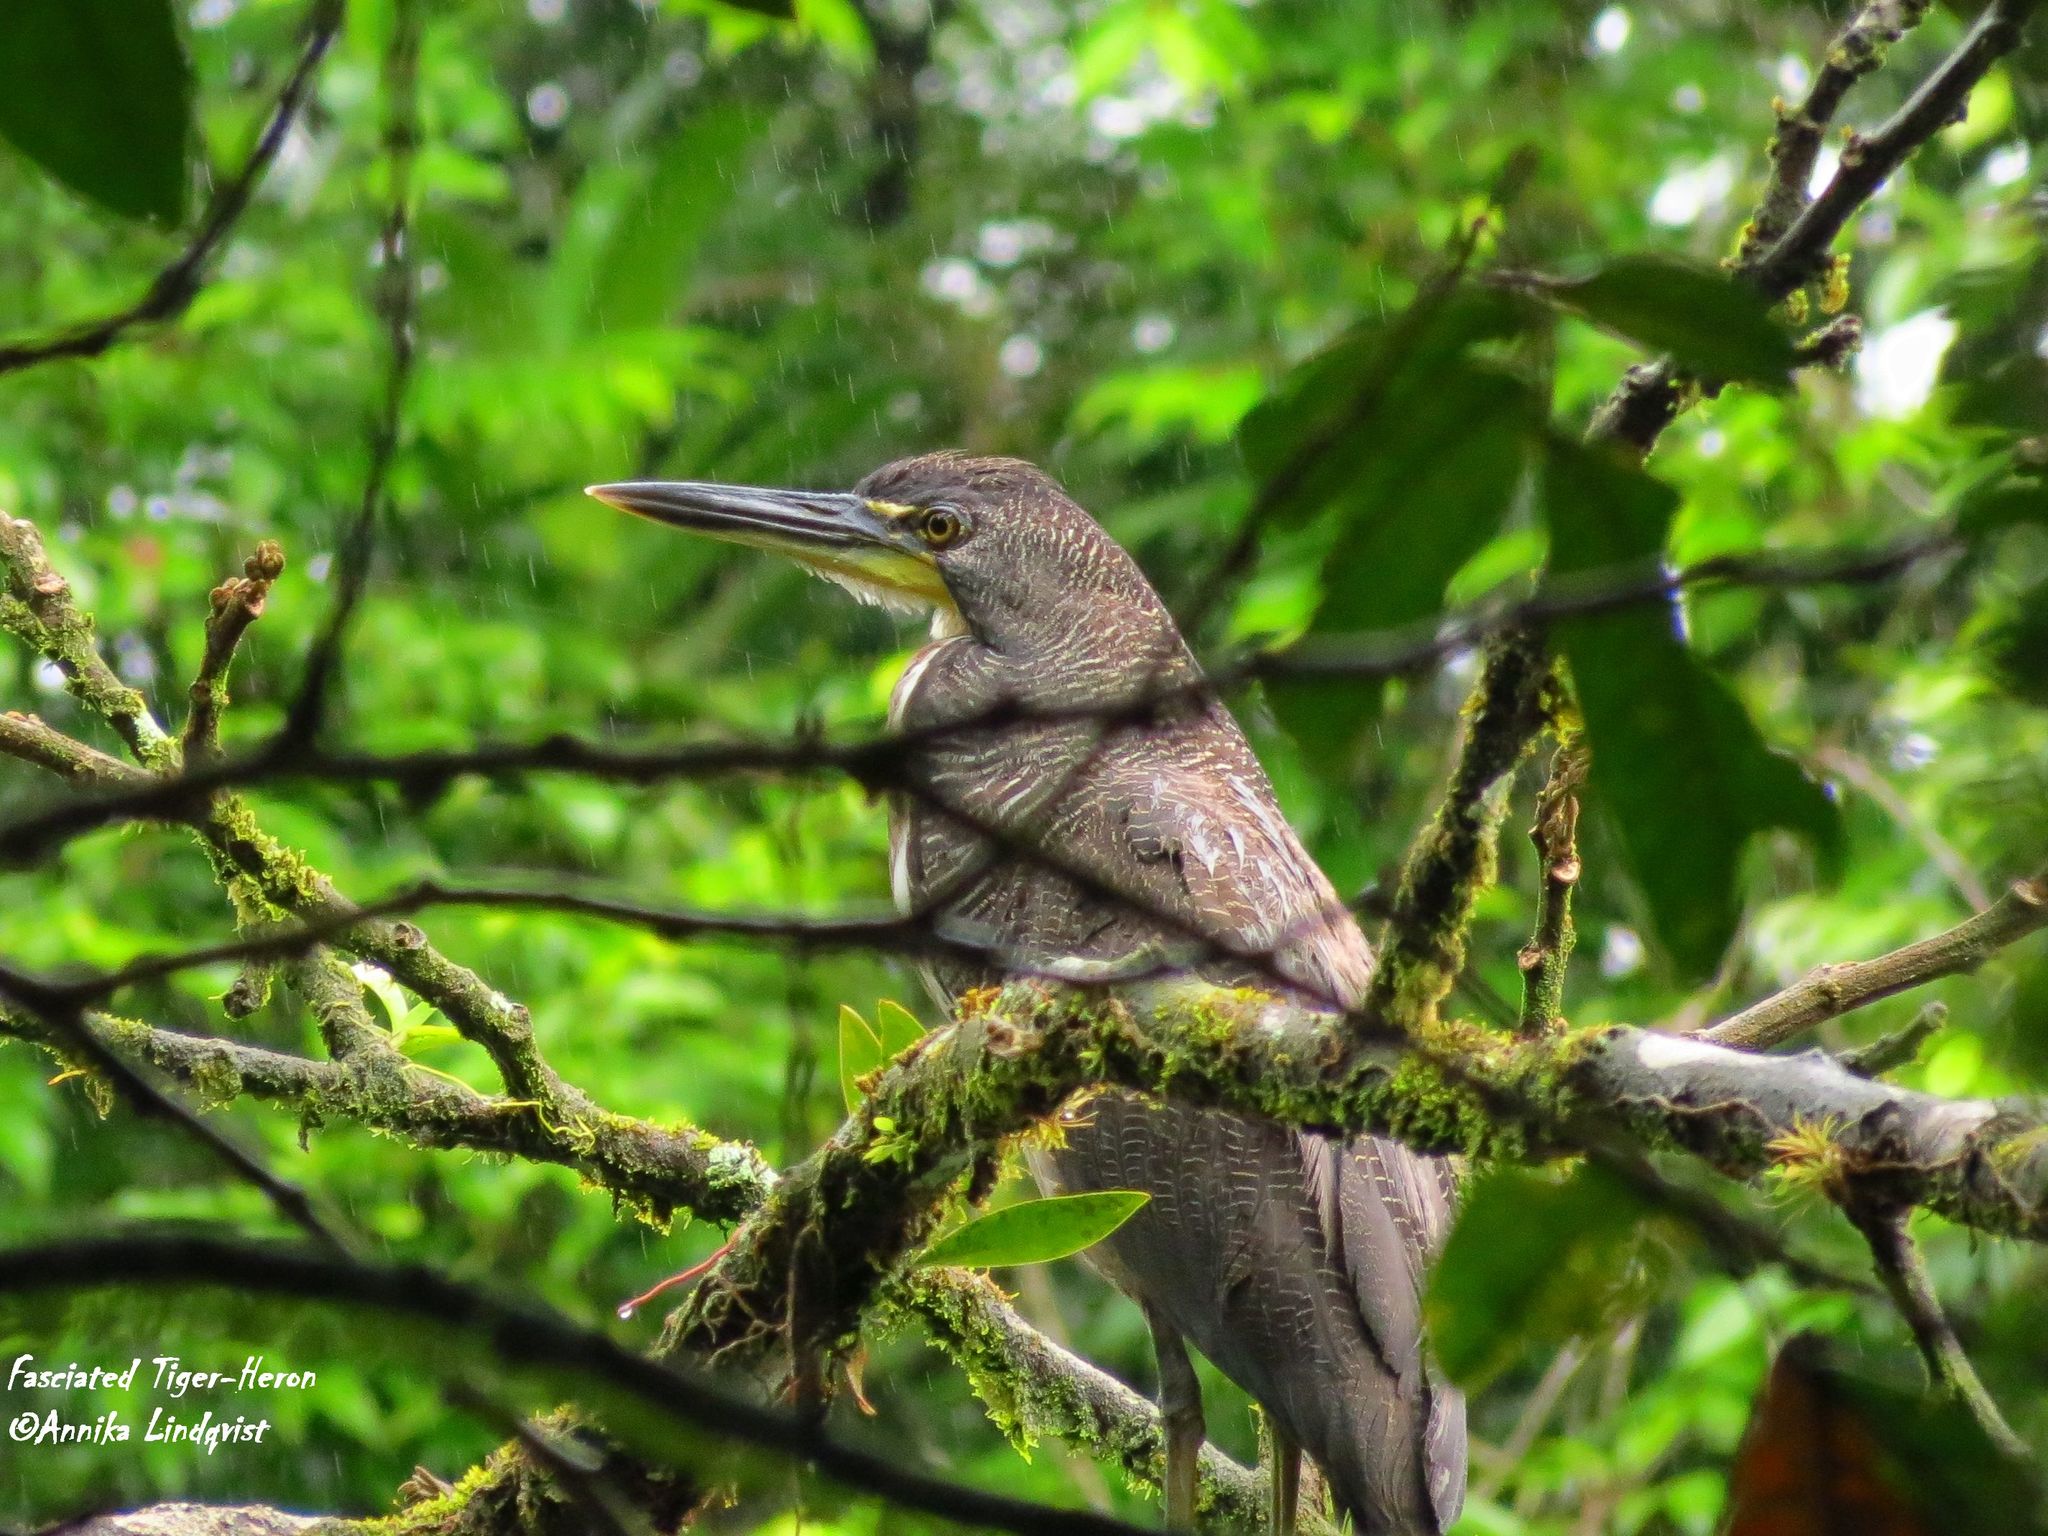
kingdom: Animalia
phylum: Chordata
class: Aves
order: Pelecaniformes
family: Ardeidae
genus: Tigrisoma
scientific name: Tigrisoma fasciatum
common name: Fasciated tiger-heron
